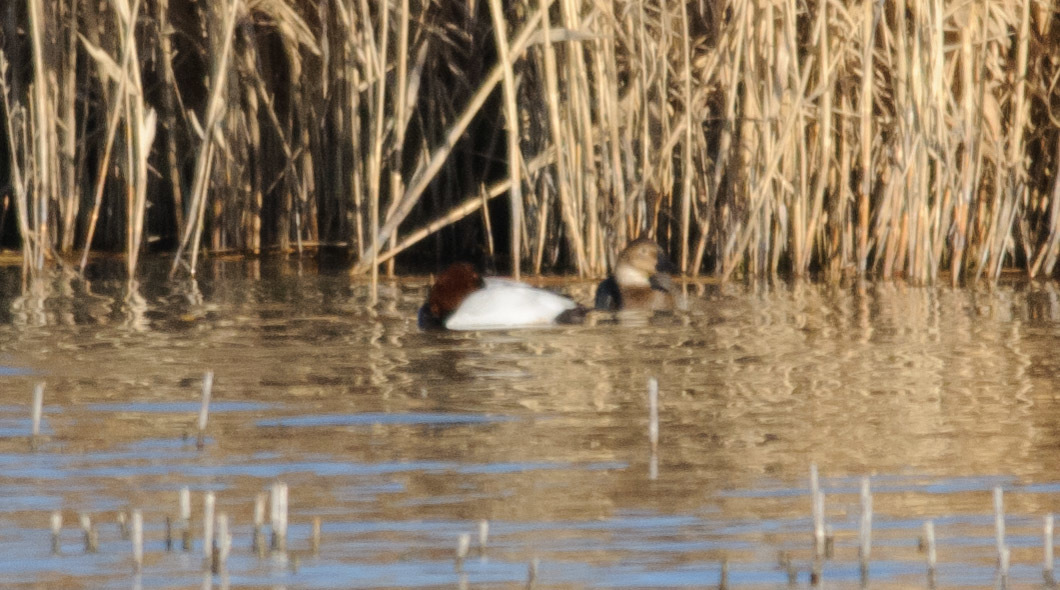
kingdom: Animalia
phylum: Chordata
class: Aves
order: Anseriformes
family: Anatidae
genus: Aythya
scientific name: Aythya valisineria
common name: Canvasback
